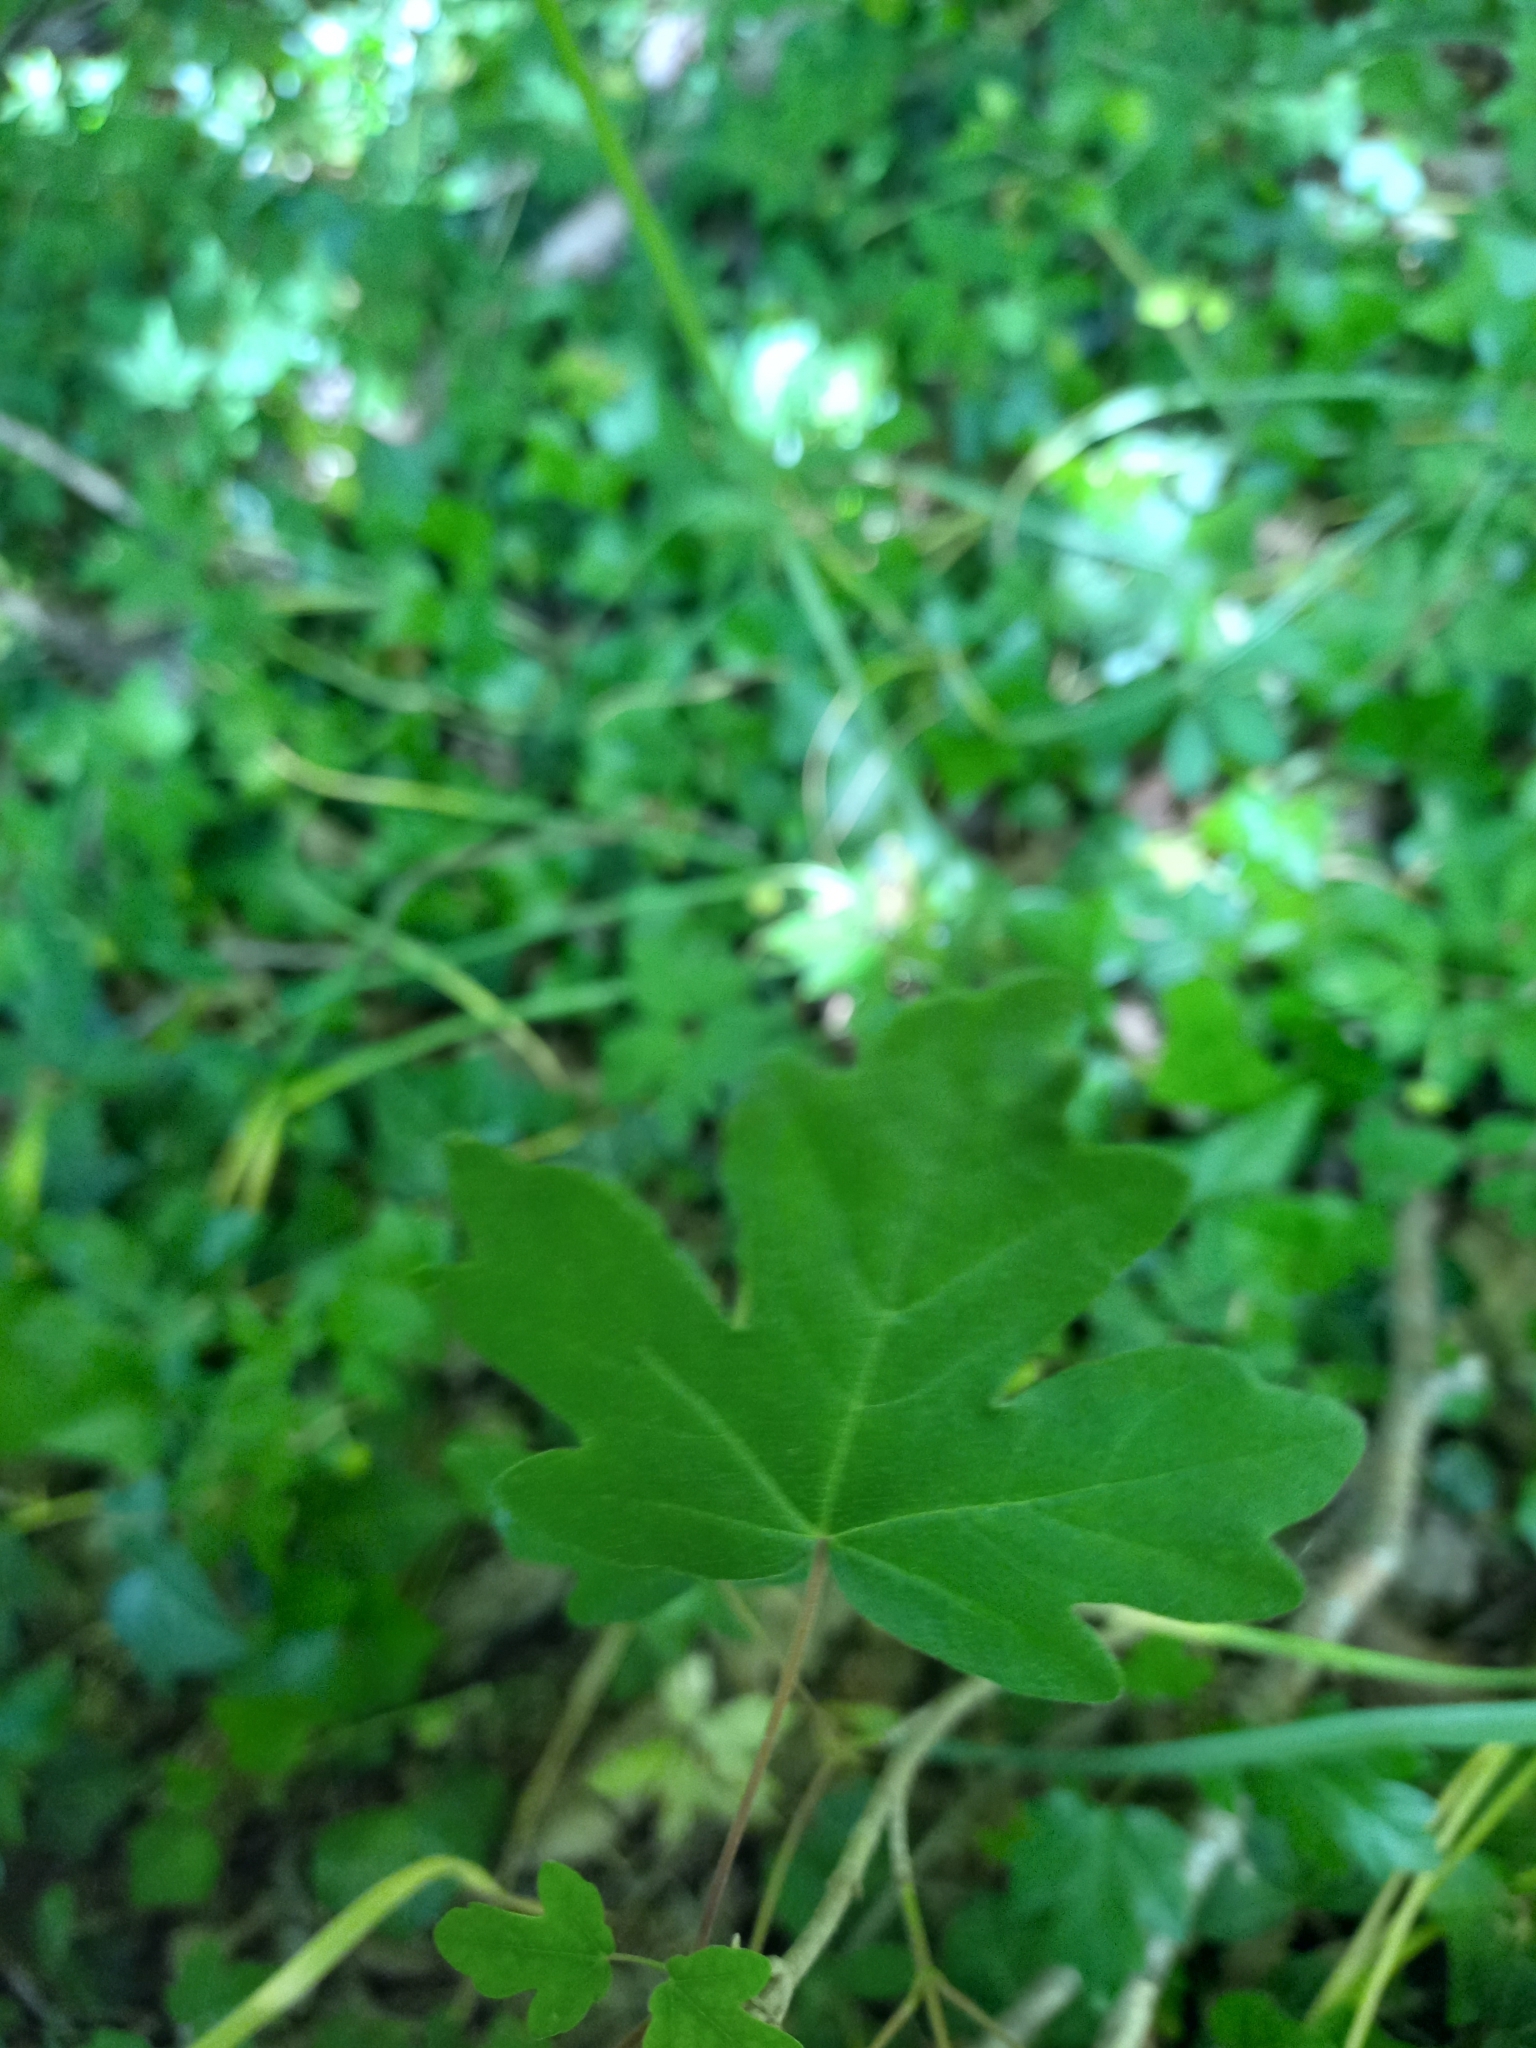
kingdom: Plantae
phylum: Tracheophyta
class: Magnoliopsida
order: Sapindales
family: Sapindaceae
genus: Acer
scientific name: Acer campestre
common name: Field maple
